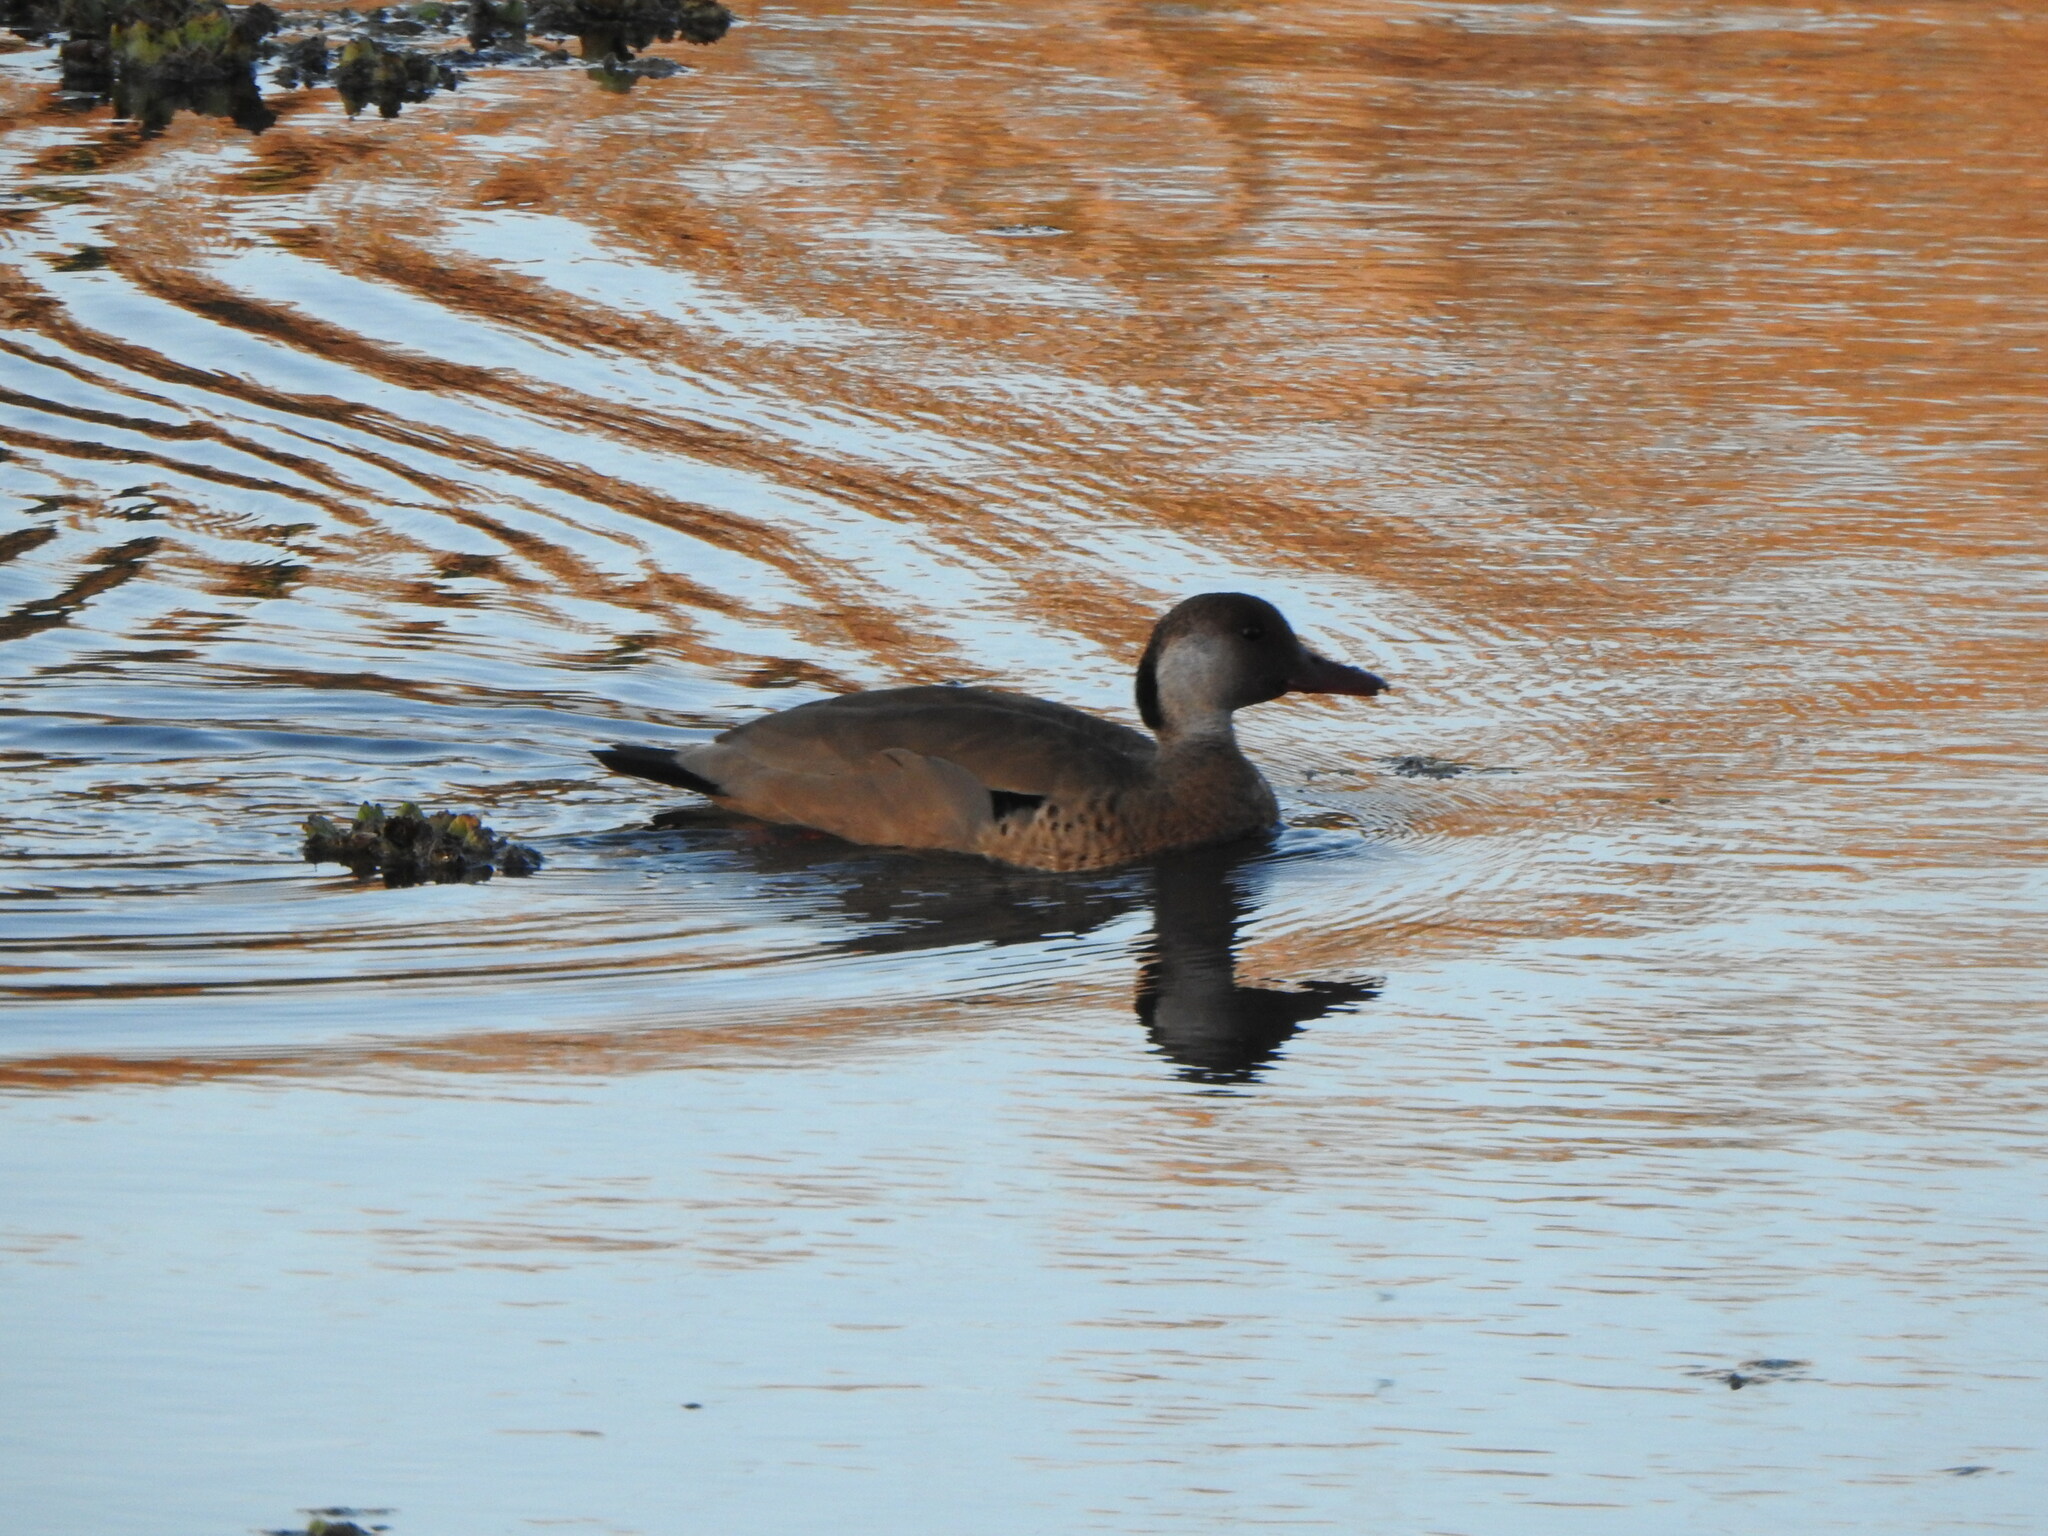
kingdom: Animalia
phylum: Chordata
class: Aves
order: Anseriformes
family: Anatidae
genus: Amazonetta
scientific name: Amazonetta brasiliensis
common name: Brazilian teal
